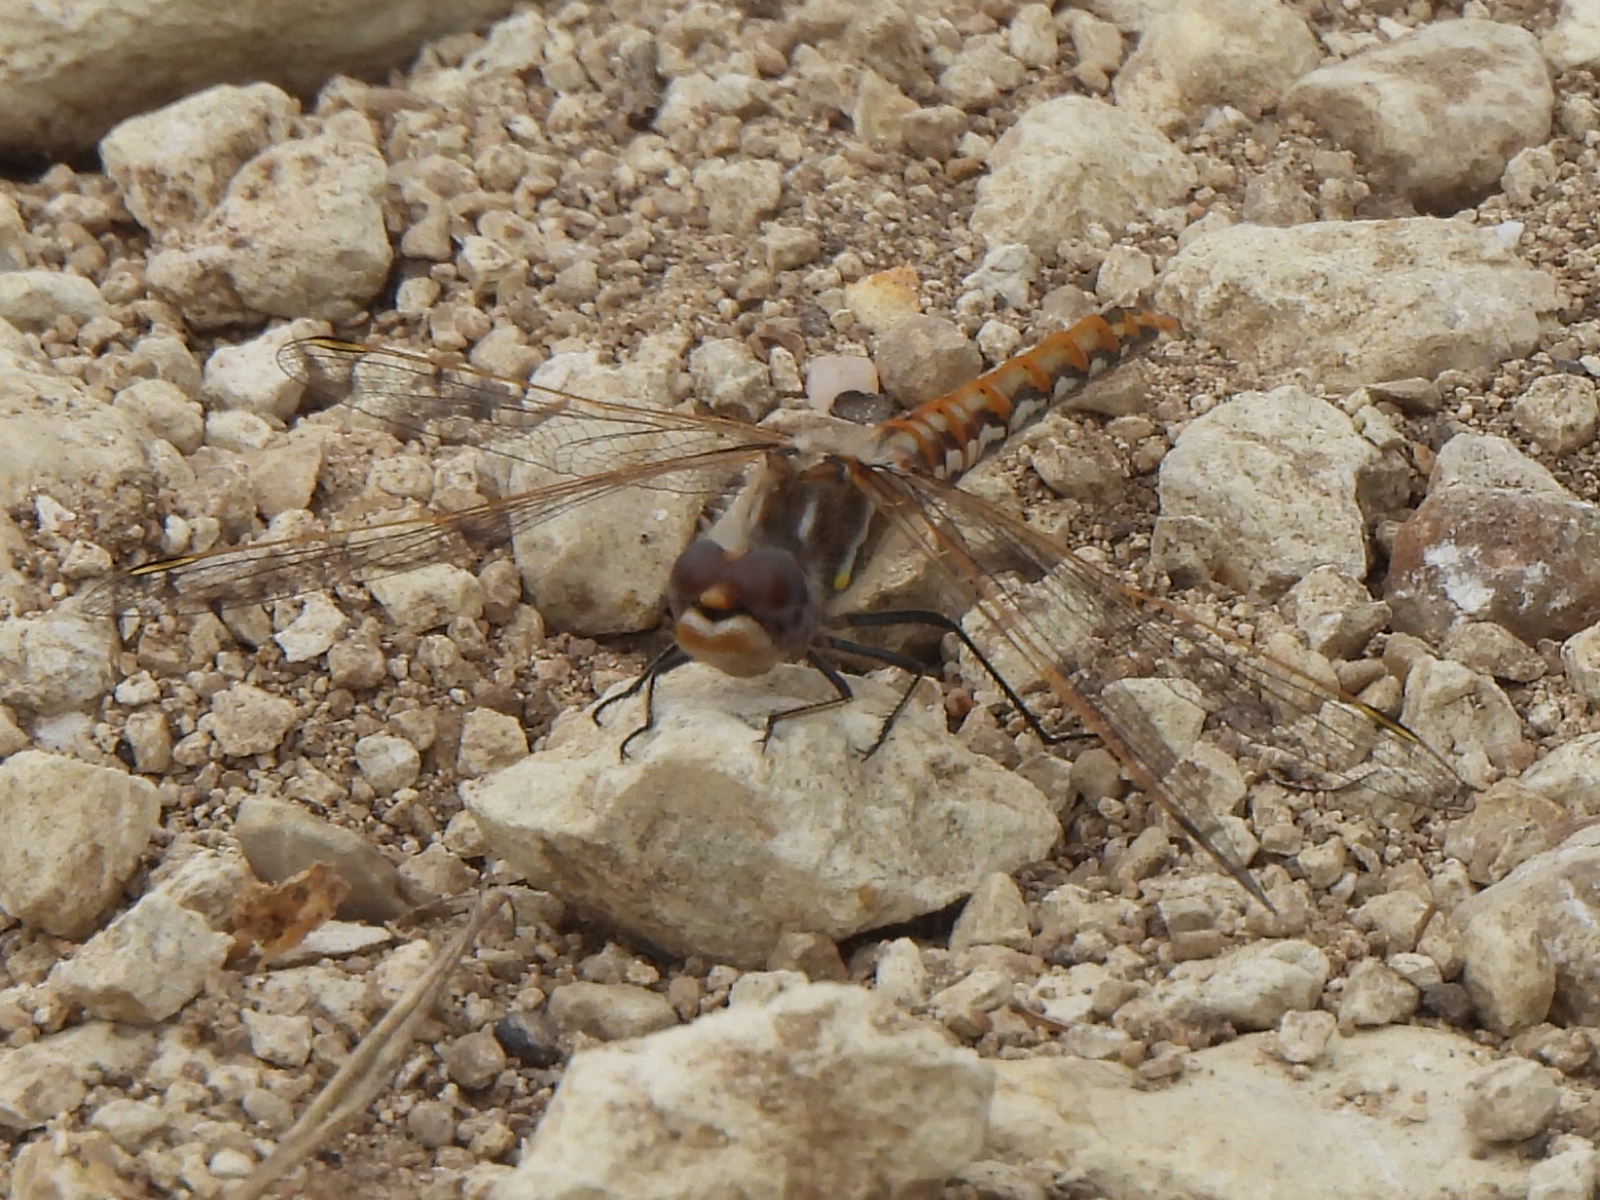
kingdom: Animalia
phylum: Arthropoda
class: Insecta
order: Odonata
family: Libellulidae
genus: Sympetrum
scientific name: Sympetrum corruptum
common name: Variegated meadowhawk
